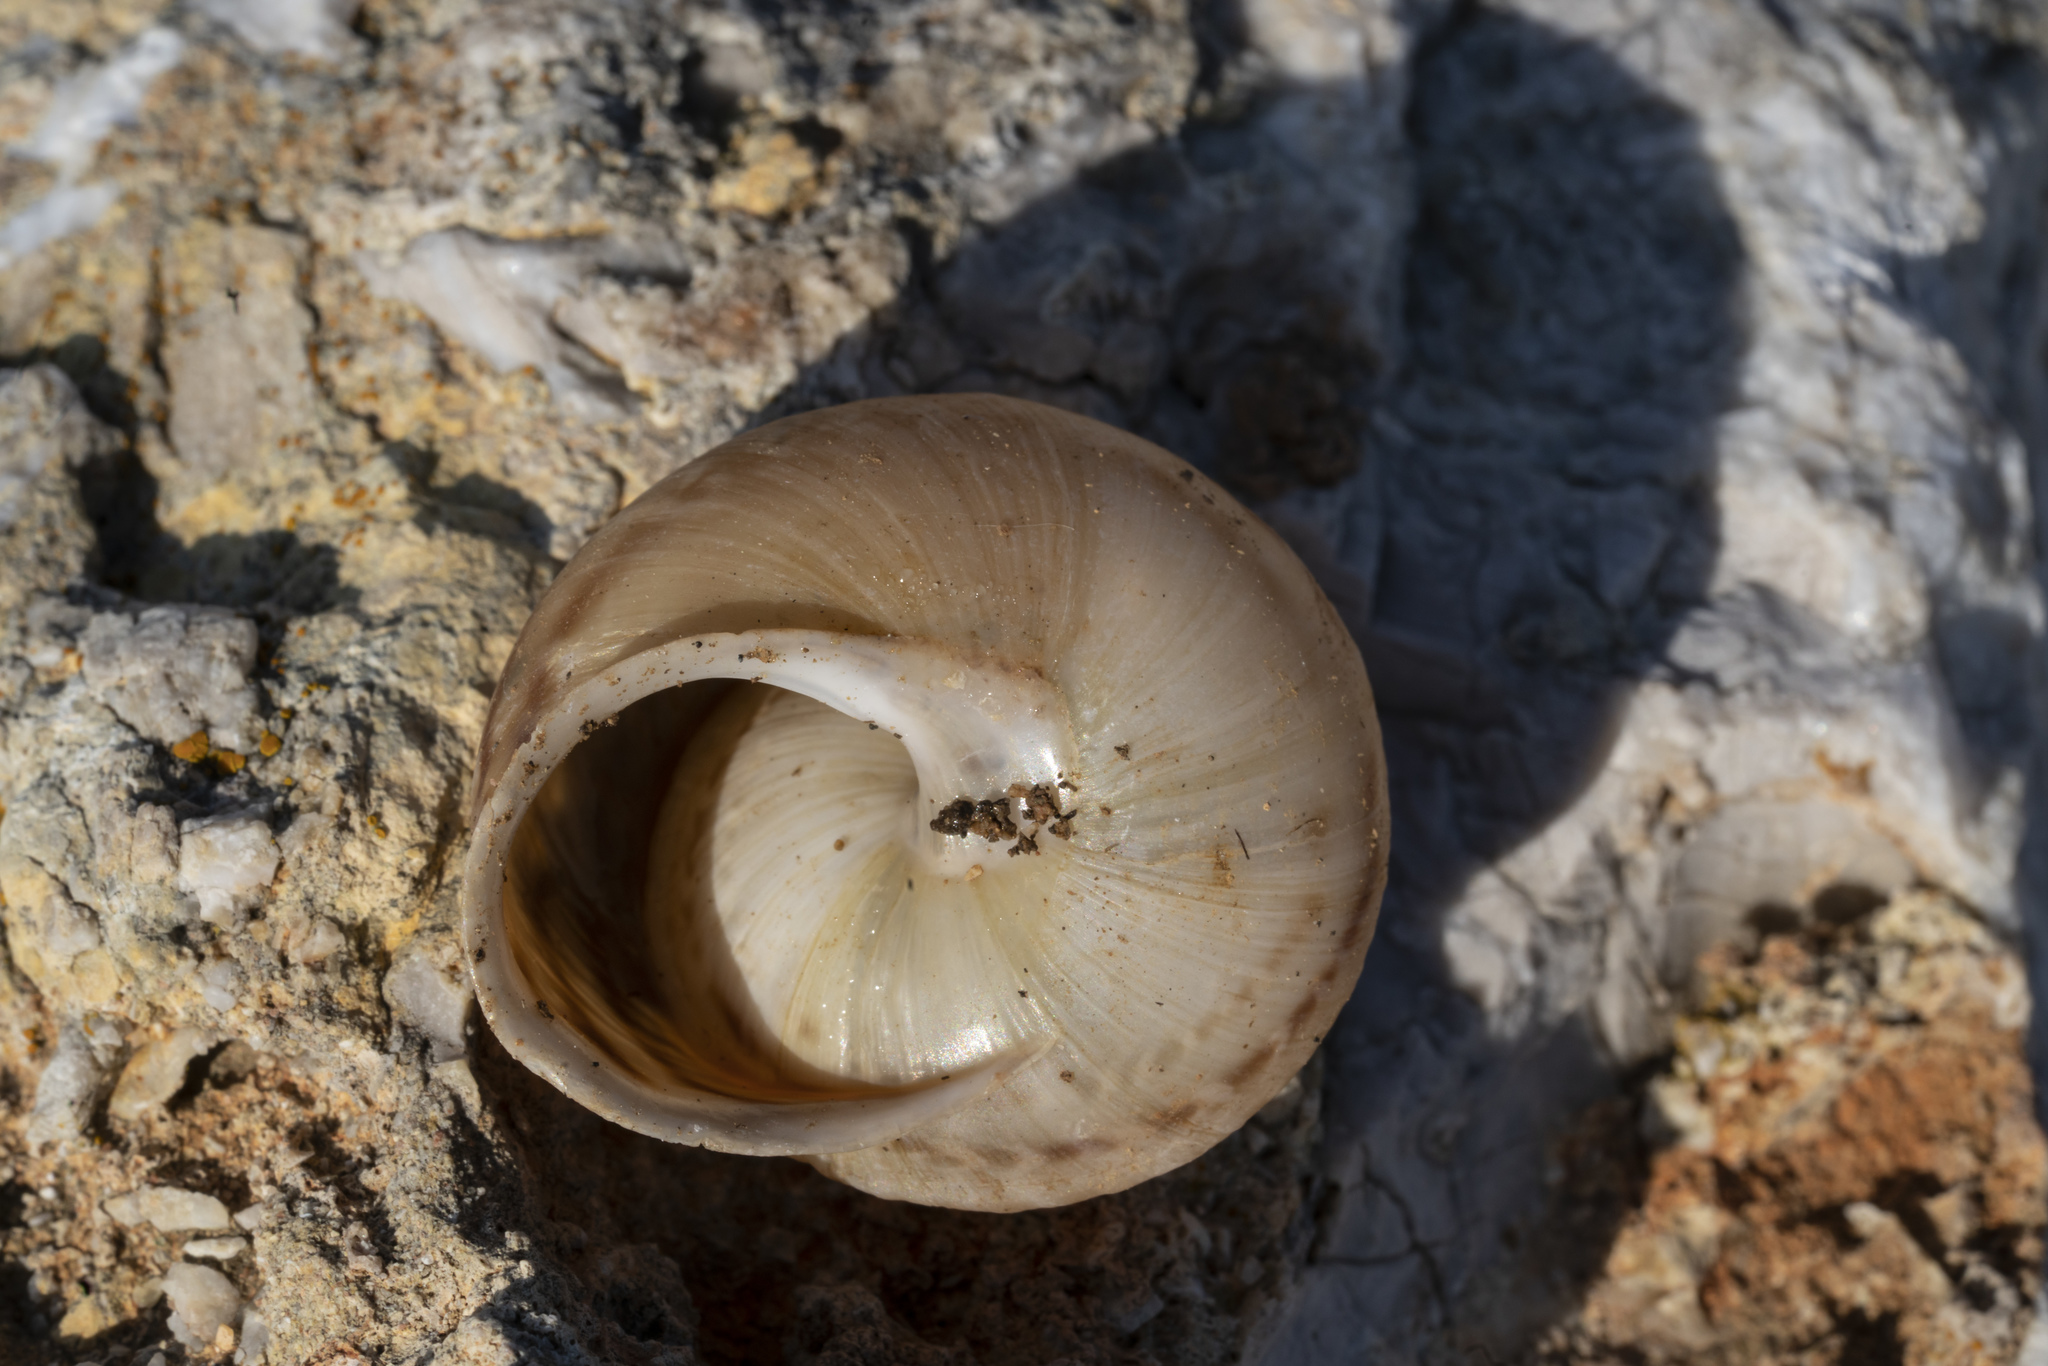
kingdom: Animalia
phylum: Mollusca
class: Gastropoda
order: Stylommatophora
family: Helicidae
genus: Levantina
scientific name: Levantina spiriplana
